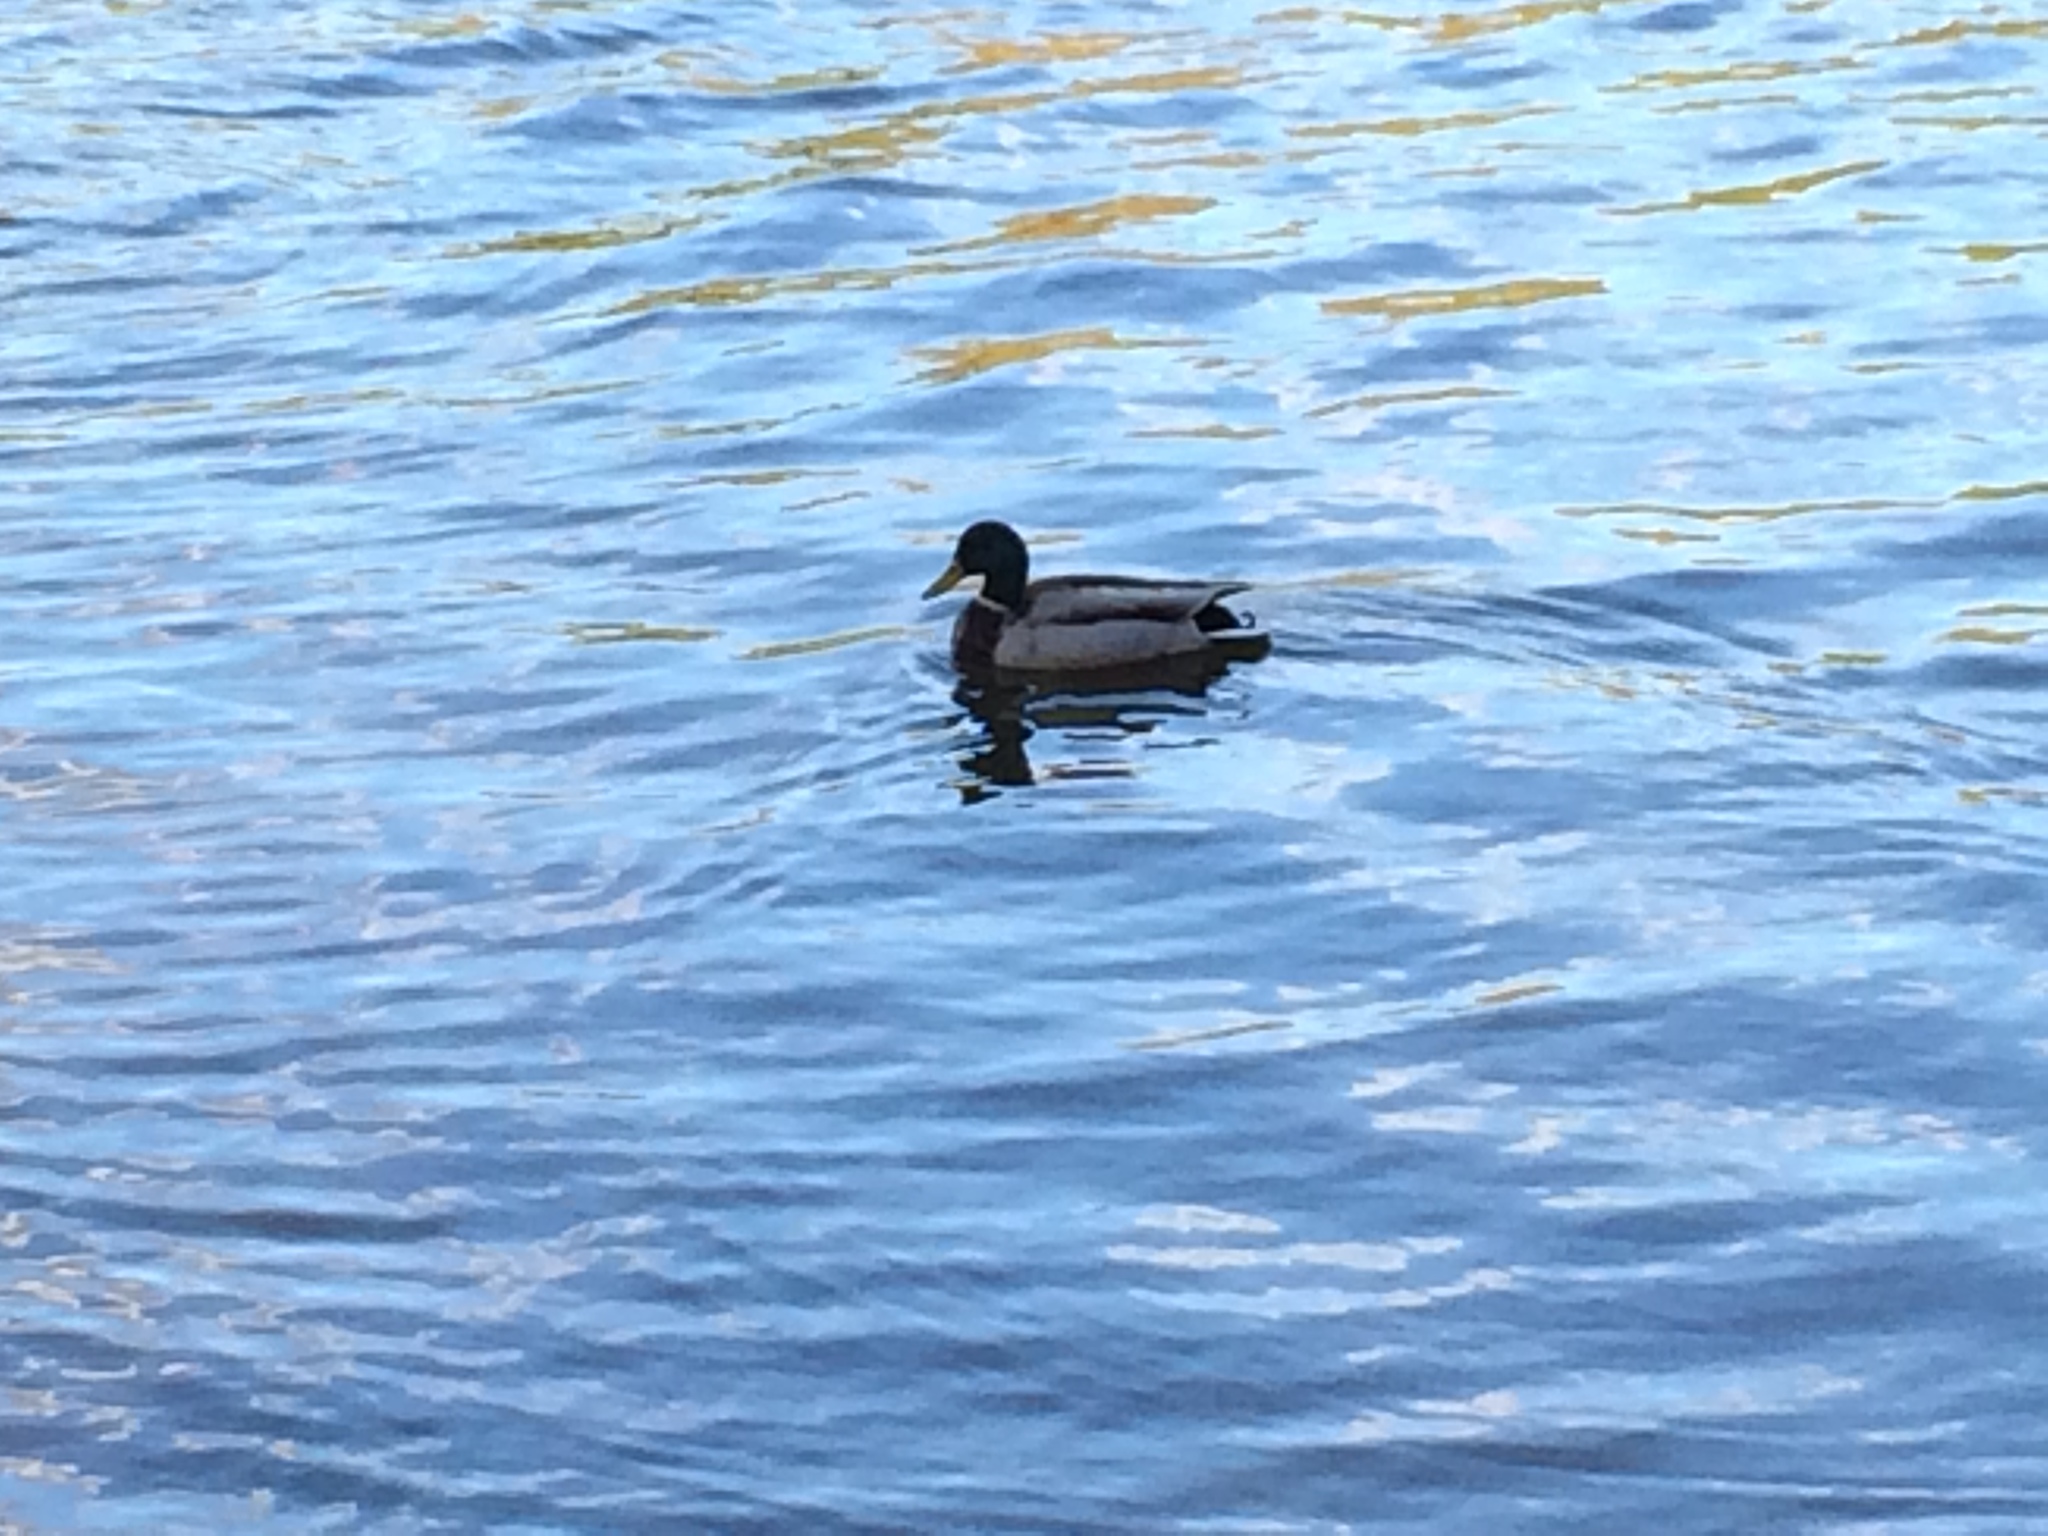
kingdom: Animalia
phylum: Chordata
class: Aves
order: Anseriformes
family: Anatidae
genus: Anas
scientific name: Anas platyrhynchos
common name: Mallard
